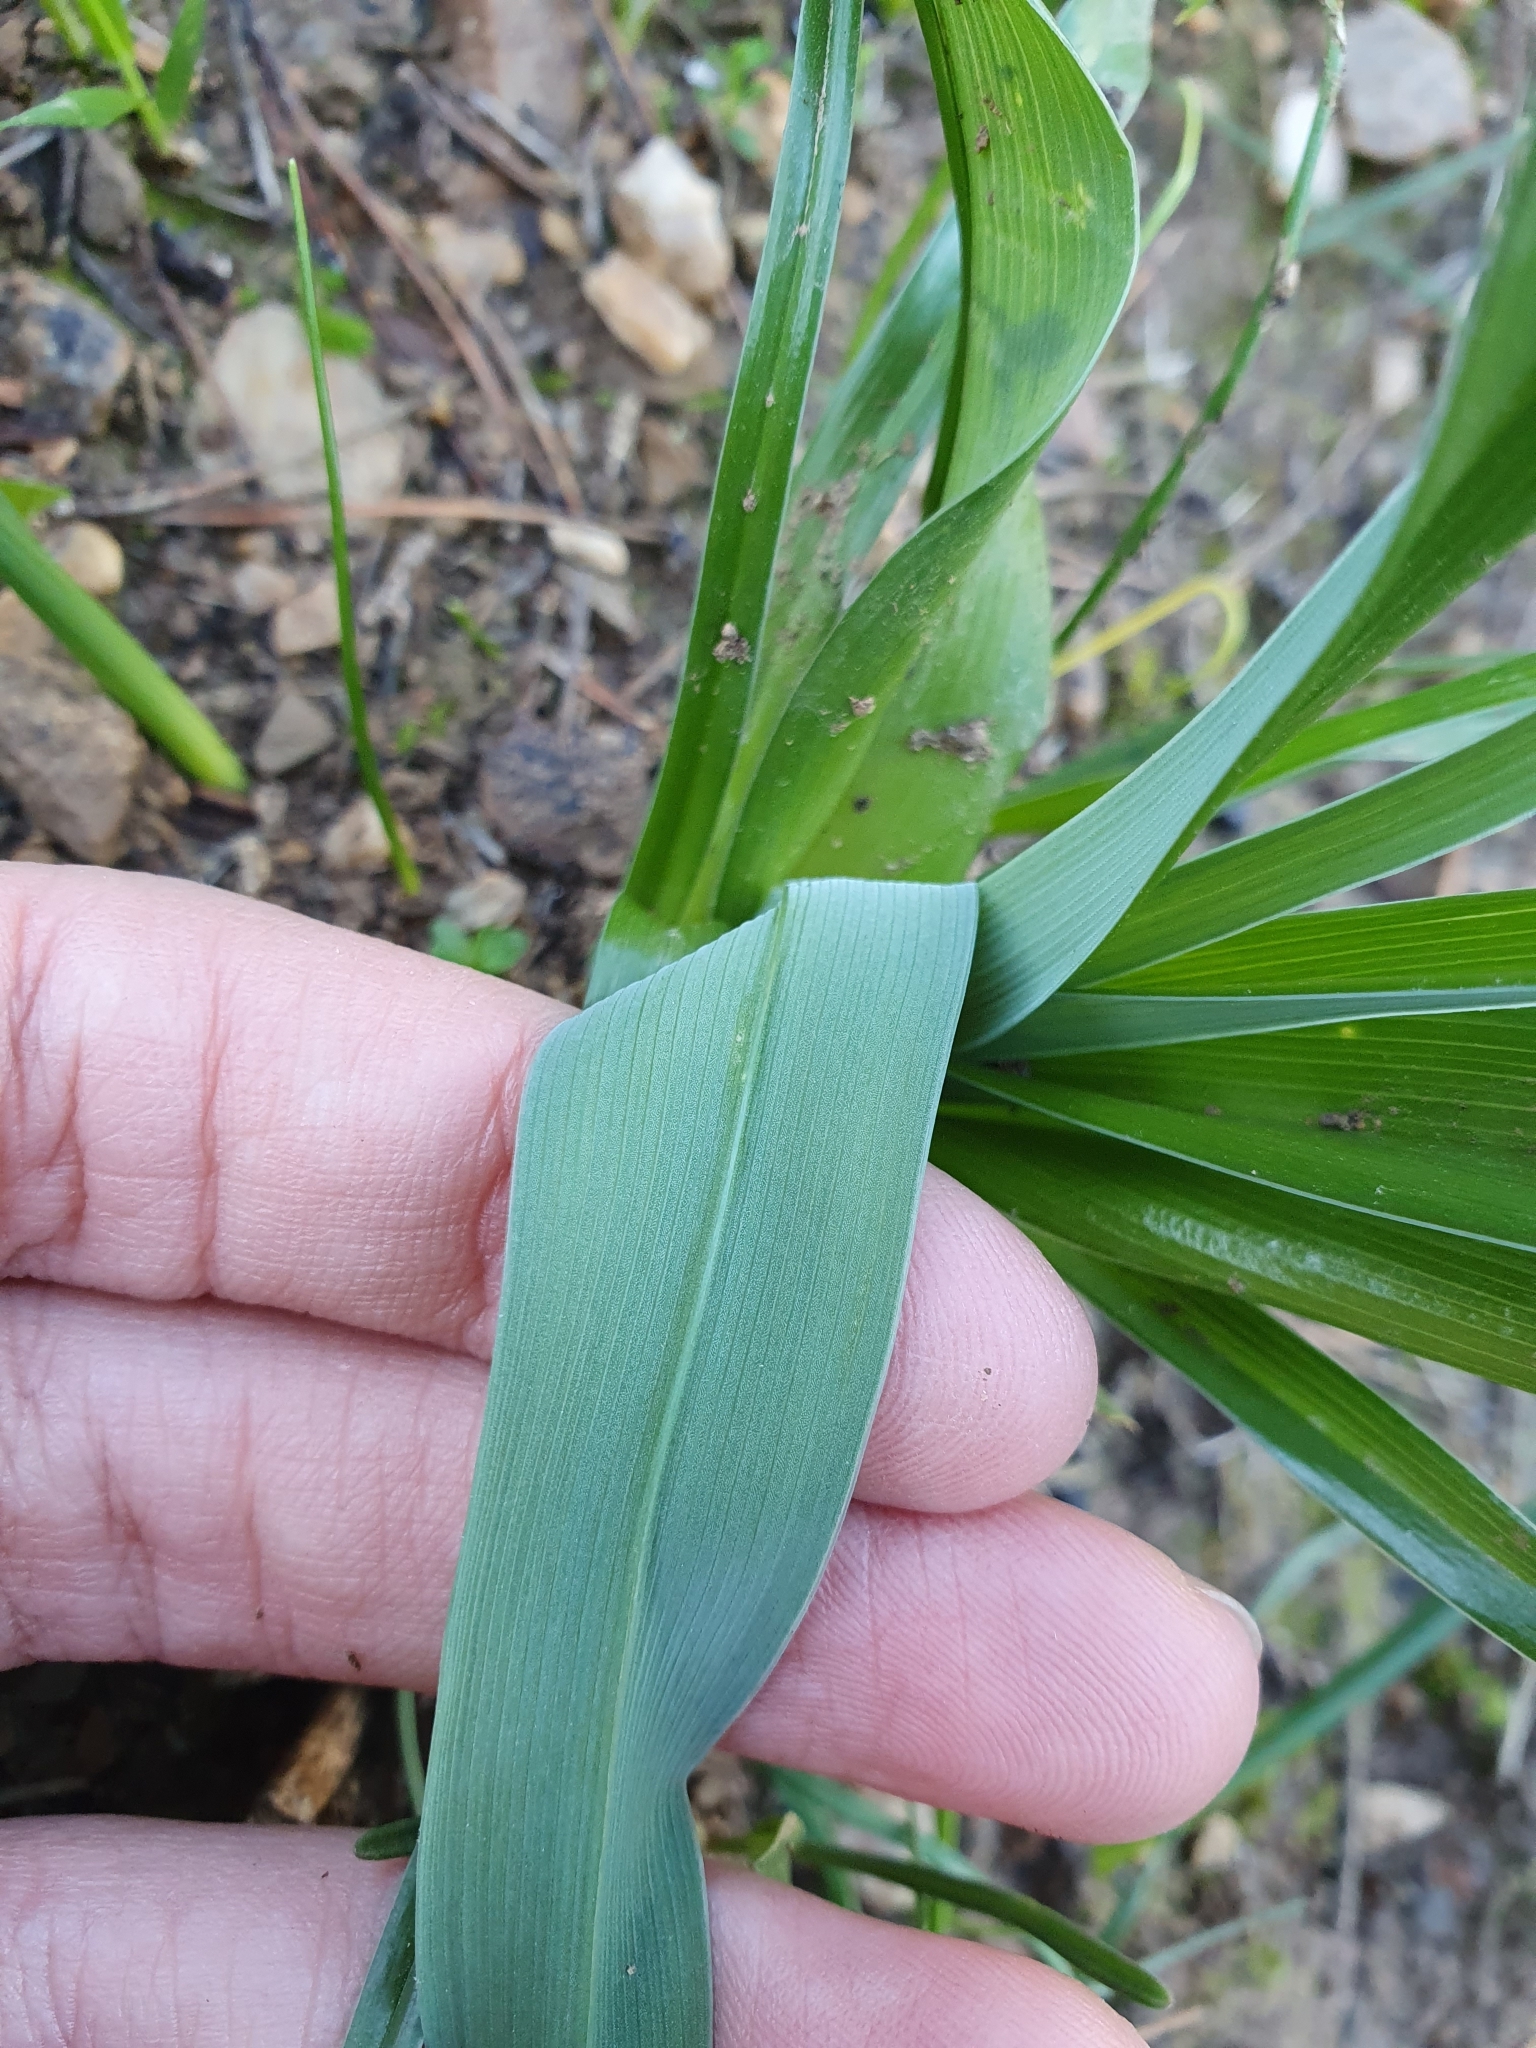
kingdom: Plantae
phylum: Tracheophyta
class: Liliopsida
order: Asparagales
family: Iridaceae
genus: Iris
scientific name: Iris planifolia
